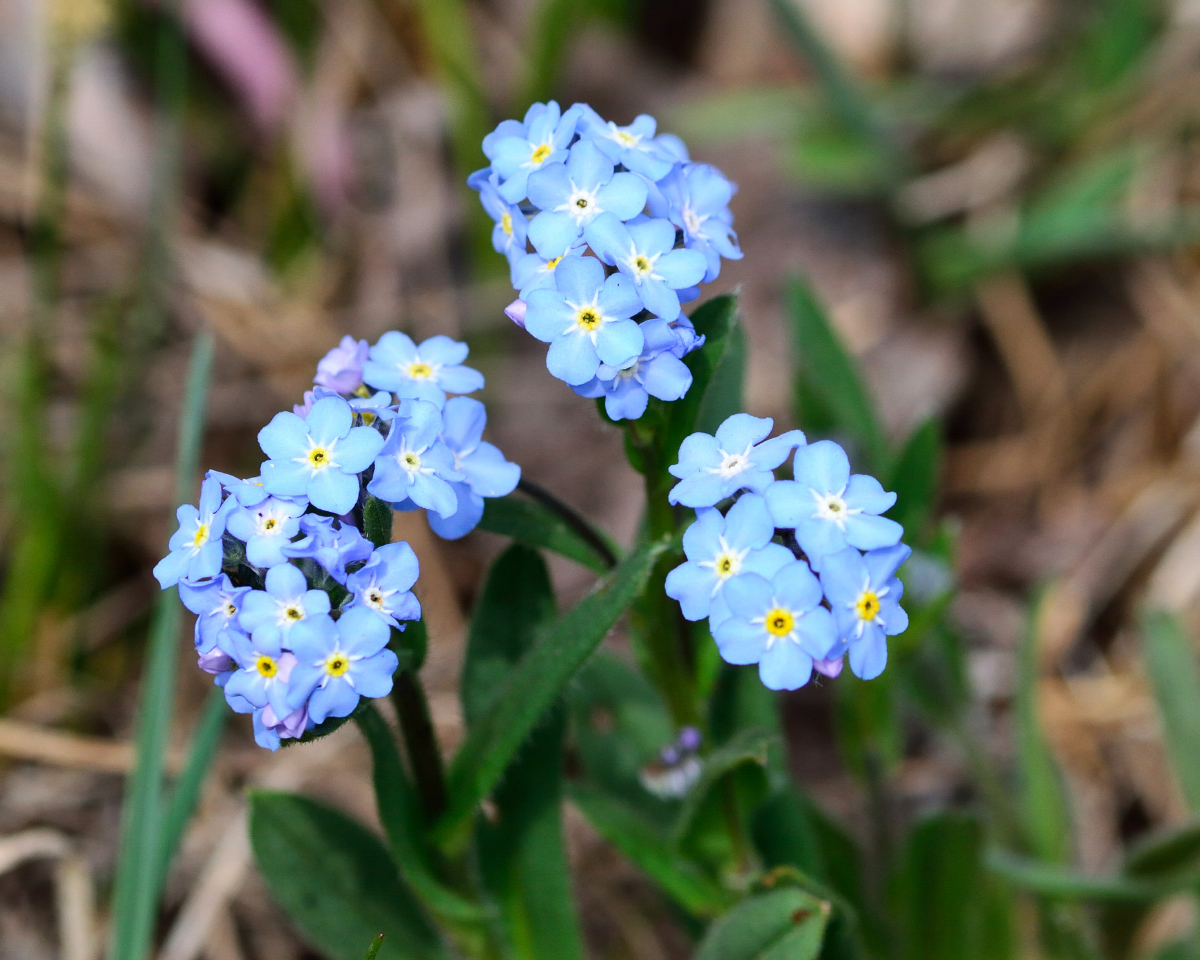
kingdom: Plantae
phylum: Tracheophyta
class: Magnoliopsida
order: Boraginales
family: Boraginaceae
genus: Myosotis
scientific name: Myosotis sylvatica
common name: Wood forget-me-not
